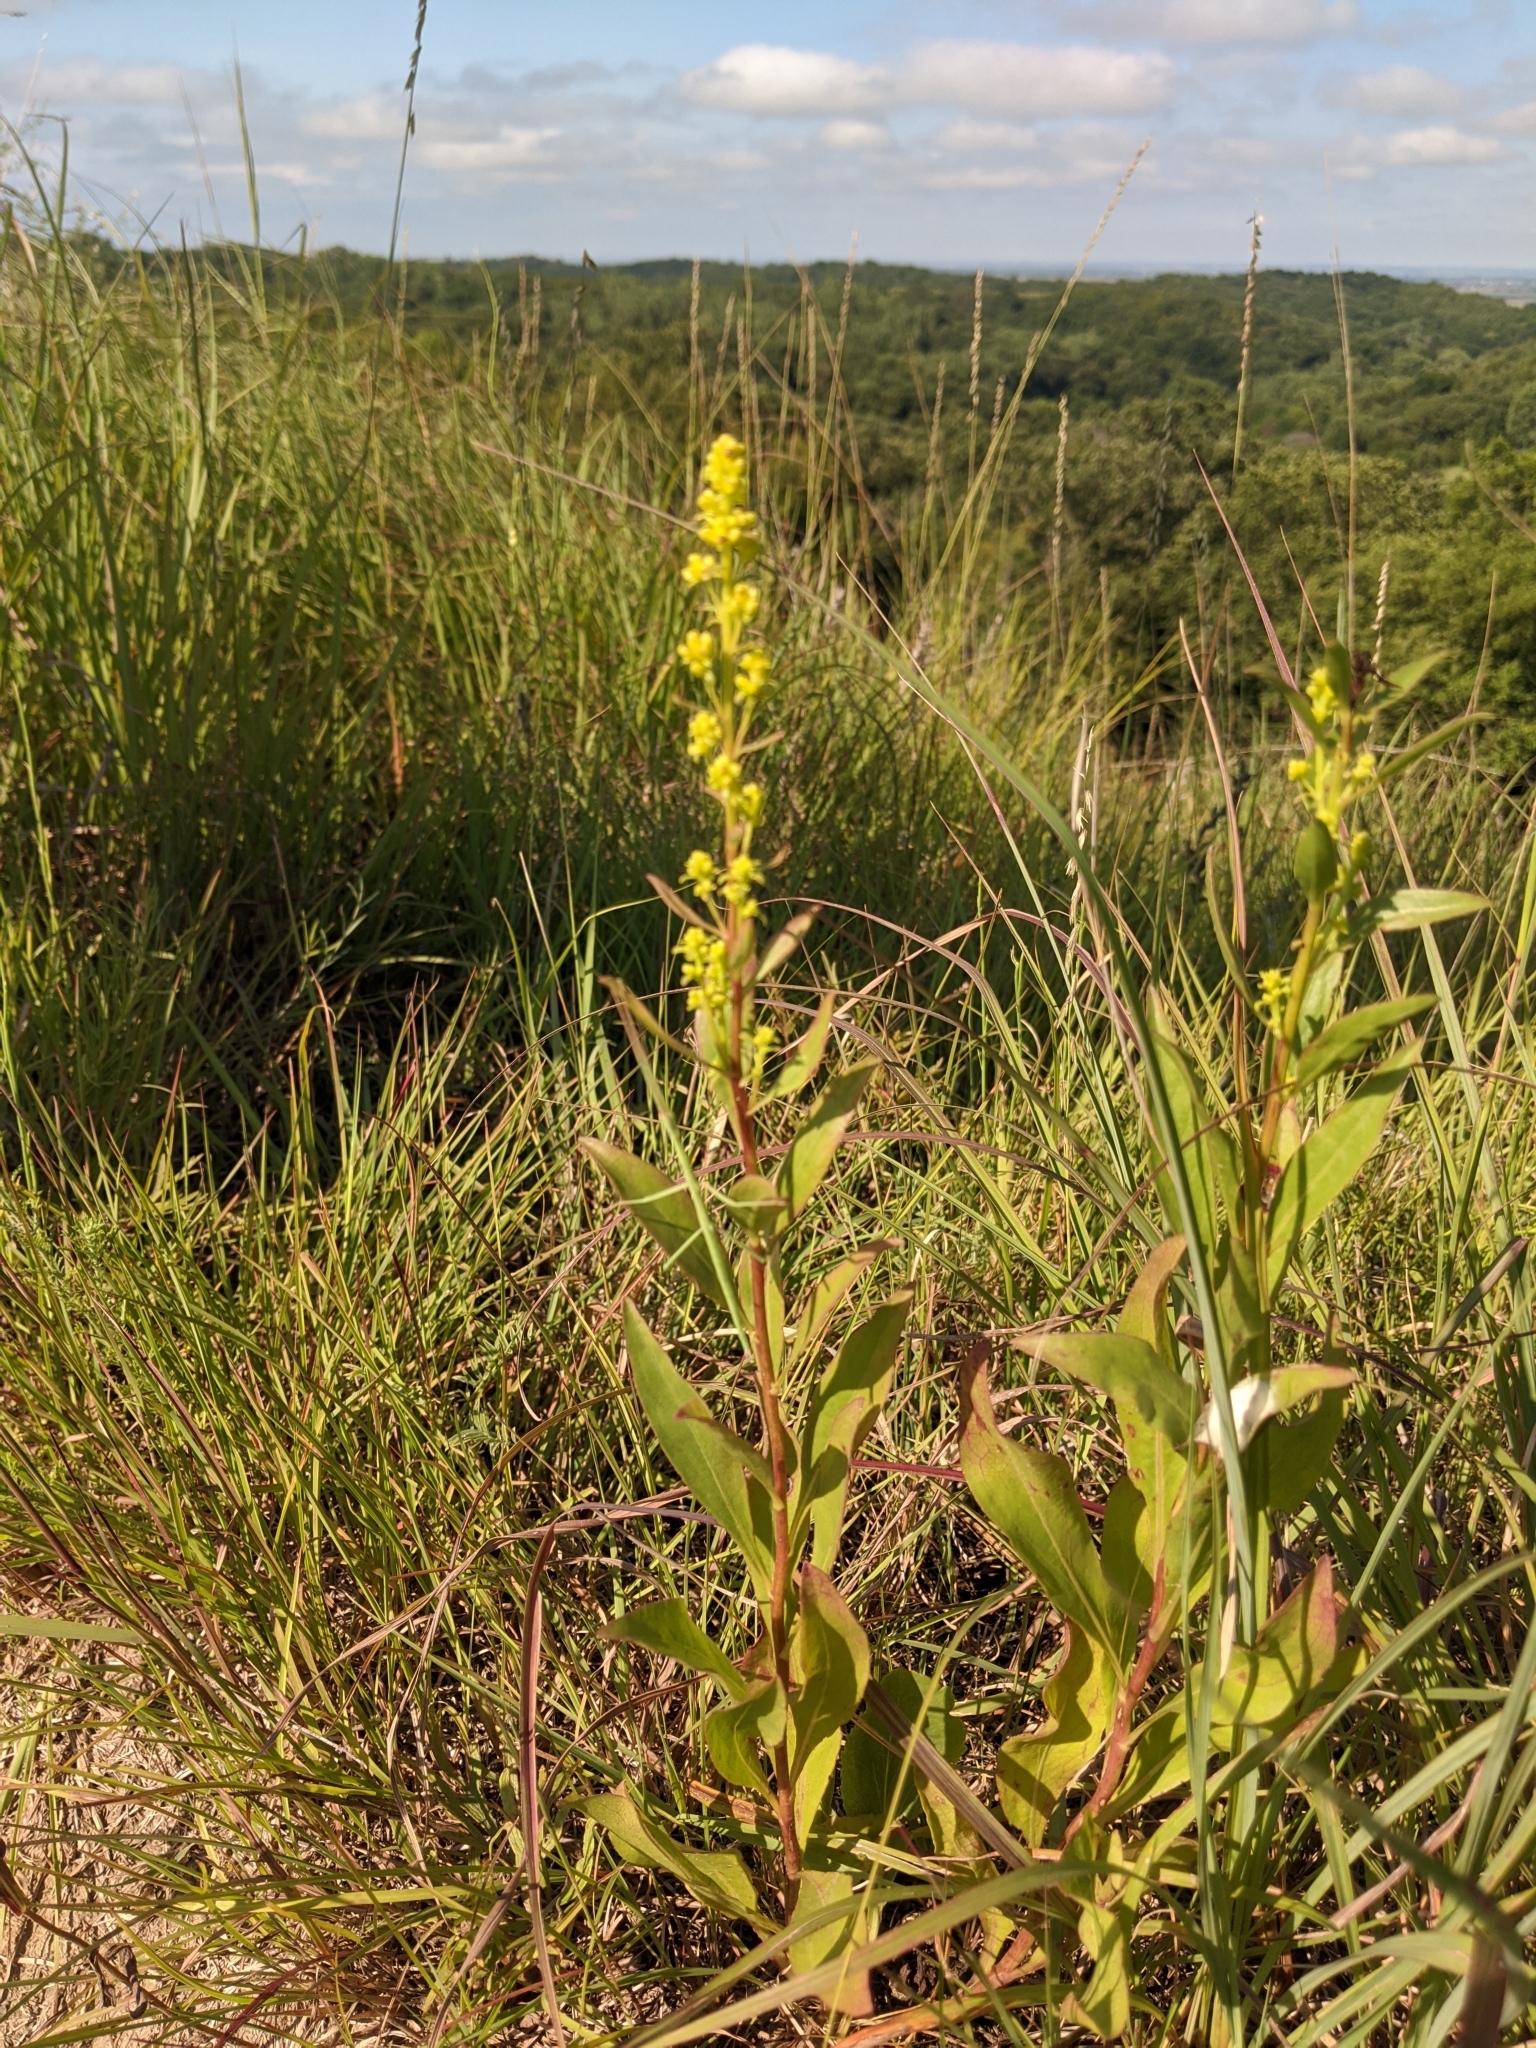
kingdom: Plantae
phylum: Tracheophyta
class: Magnoliopsida
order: Asterales
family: Asteraceae
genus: Solidago
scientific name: Solidago rigidiuscula
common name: Stiff-leaved showy goldenrod
